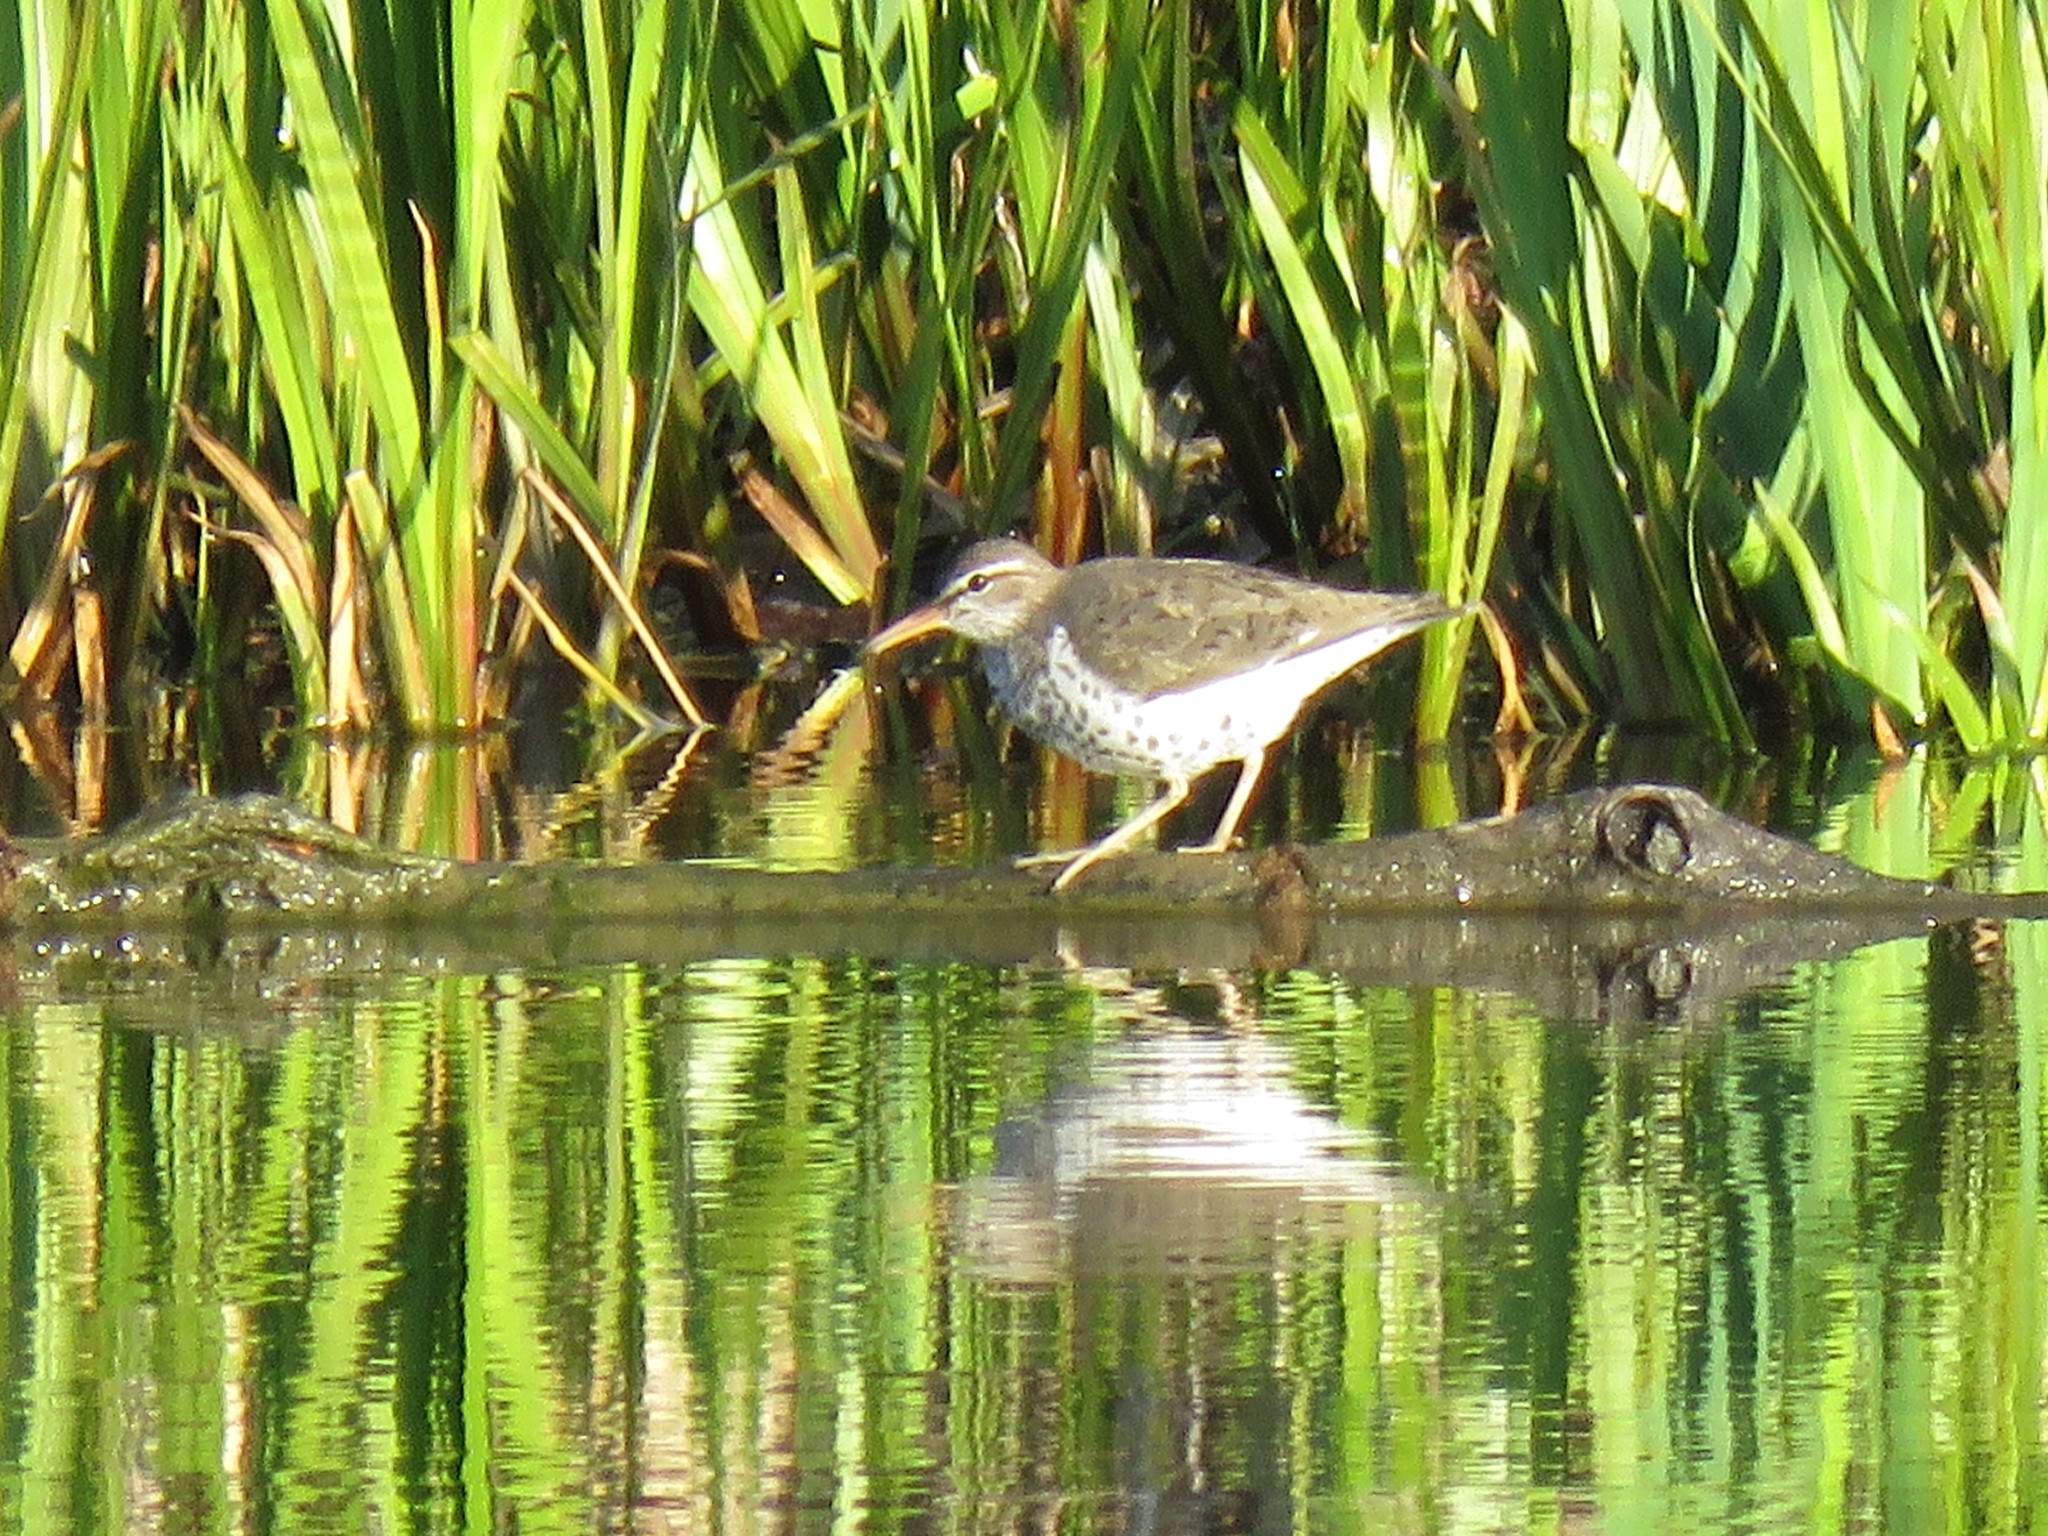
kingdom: Animalia
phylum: Chordata
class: Aves
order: Charadriiformes
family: Scolopacidae
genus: Actitis
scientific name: Actitis macularius
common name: Spotted sandpiper
